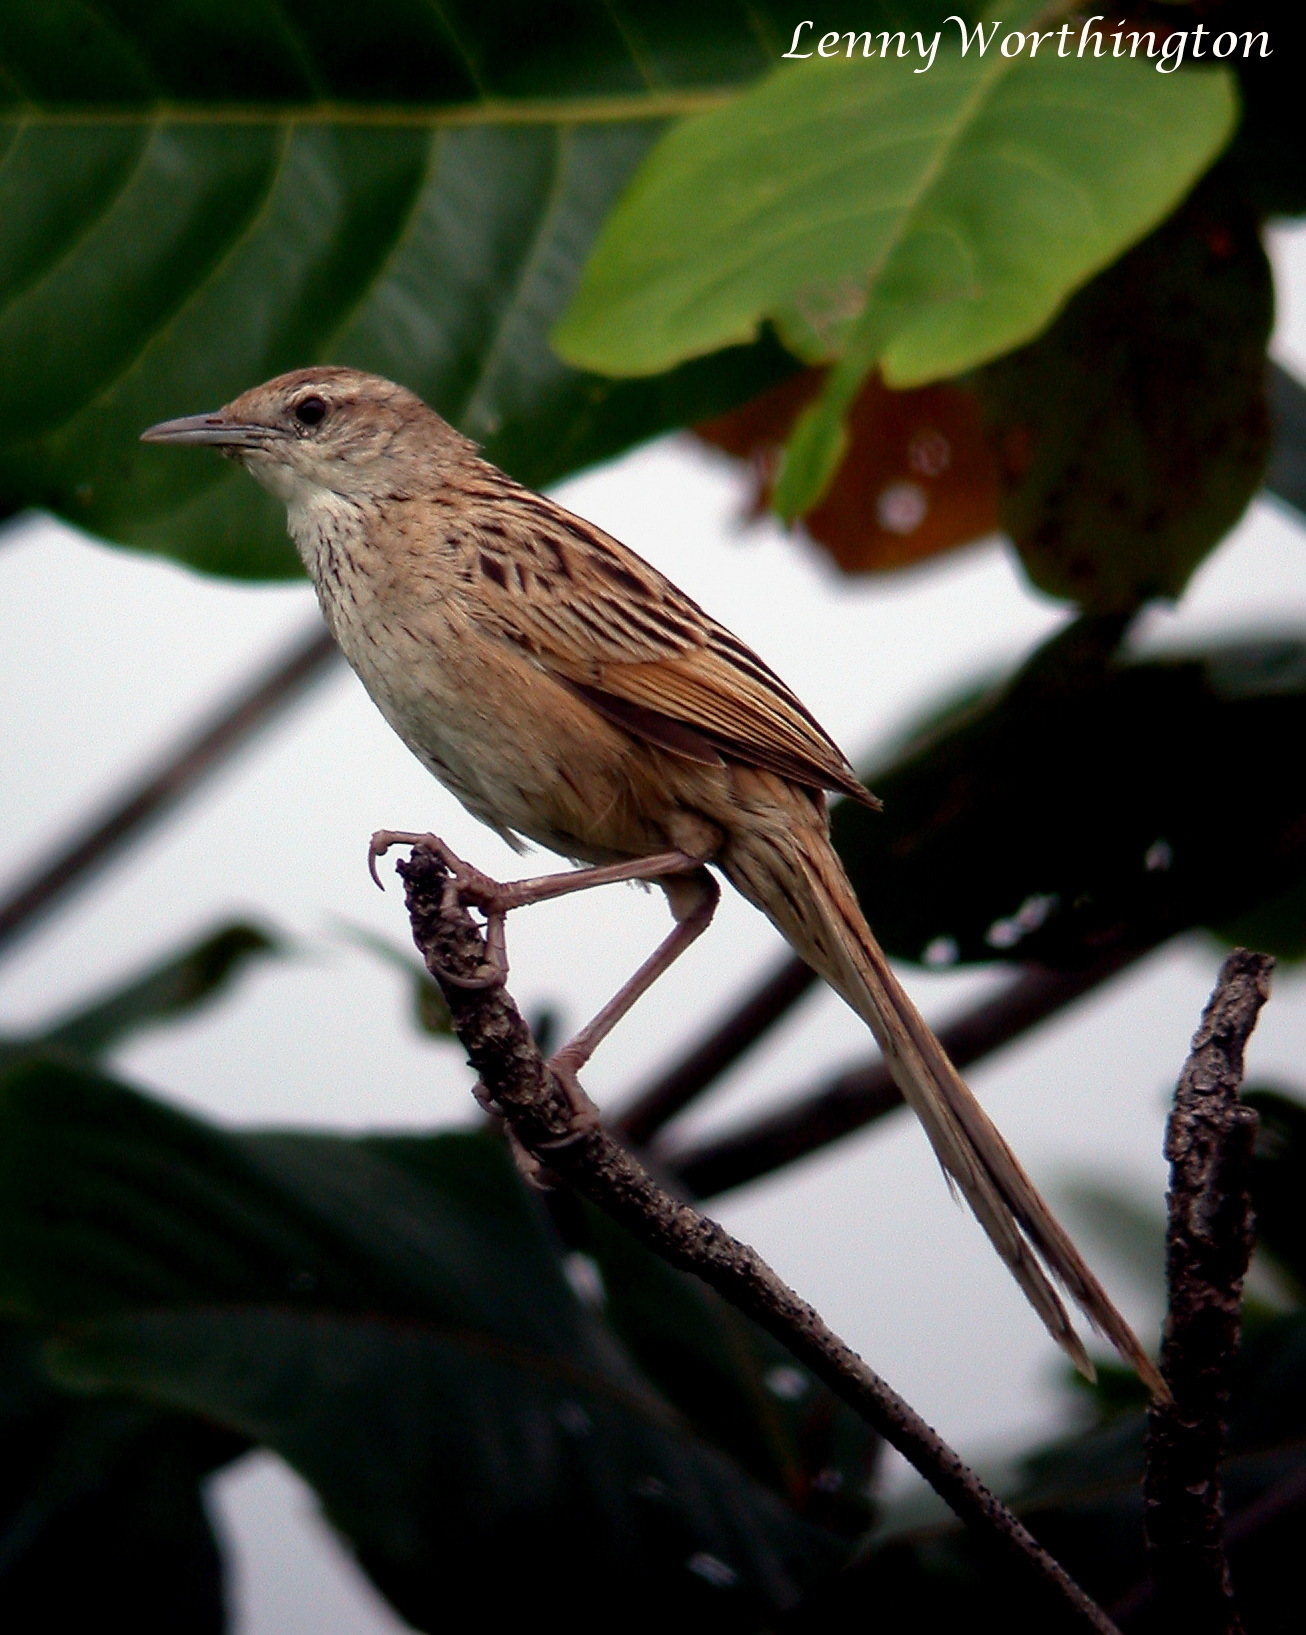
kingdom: Animalia
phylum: Chordata
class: Aves
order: Passeriformes
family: Locustellidae
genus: Megalurus
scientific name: Megalurus palustris
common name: Striated grassbird
